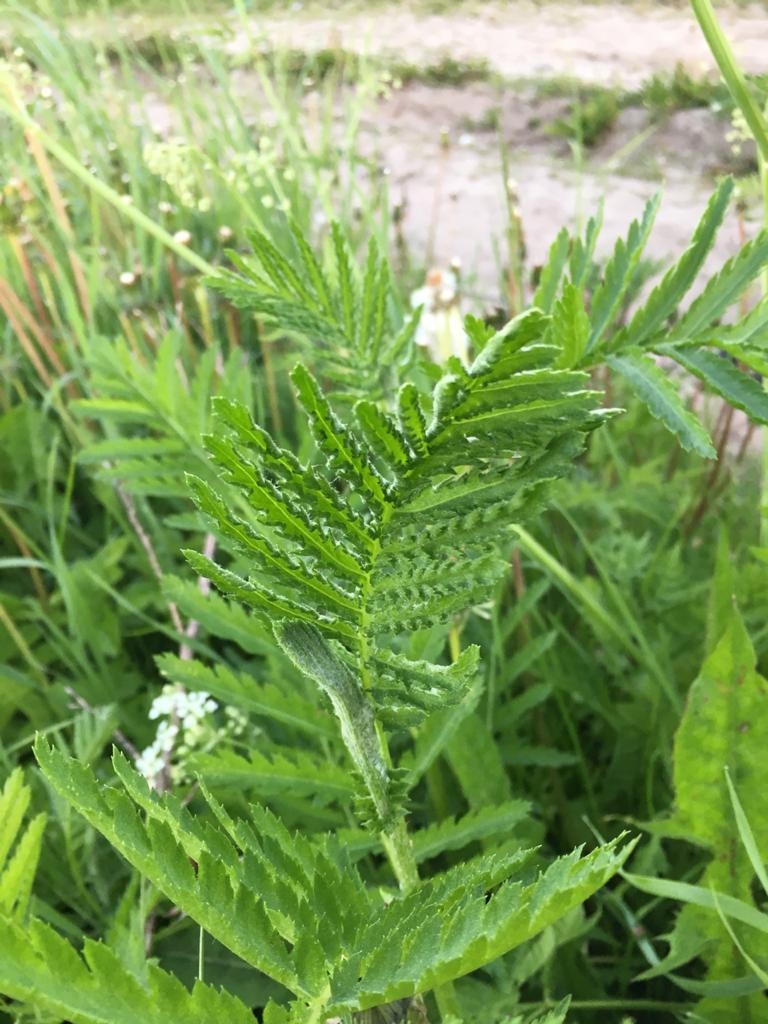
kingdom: Plantae
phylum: Tracheophyta
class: Magnoliopsida
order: Asterales
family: Asteraceae
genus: Tanacetum
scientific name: Tanacetum vulgare
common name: Common tansy
